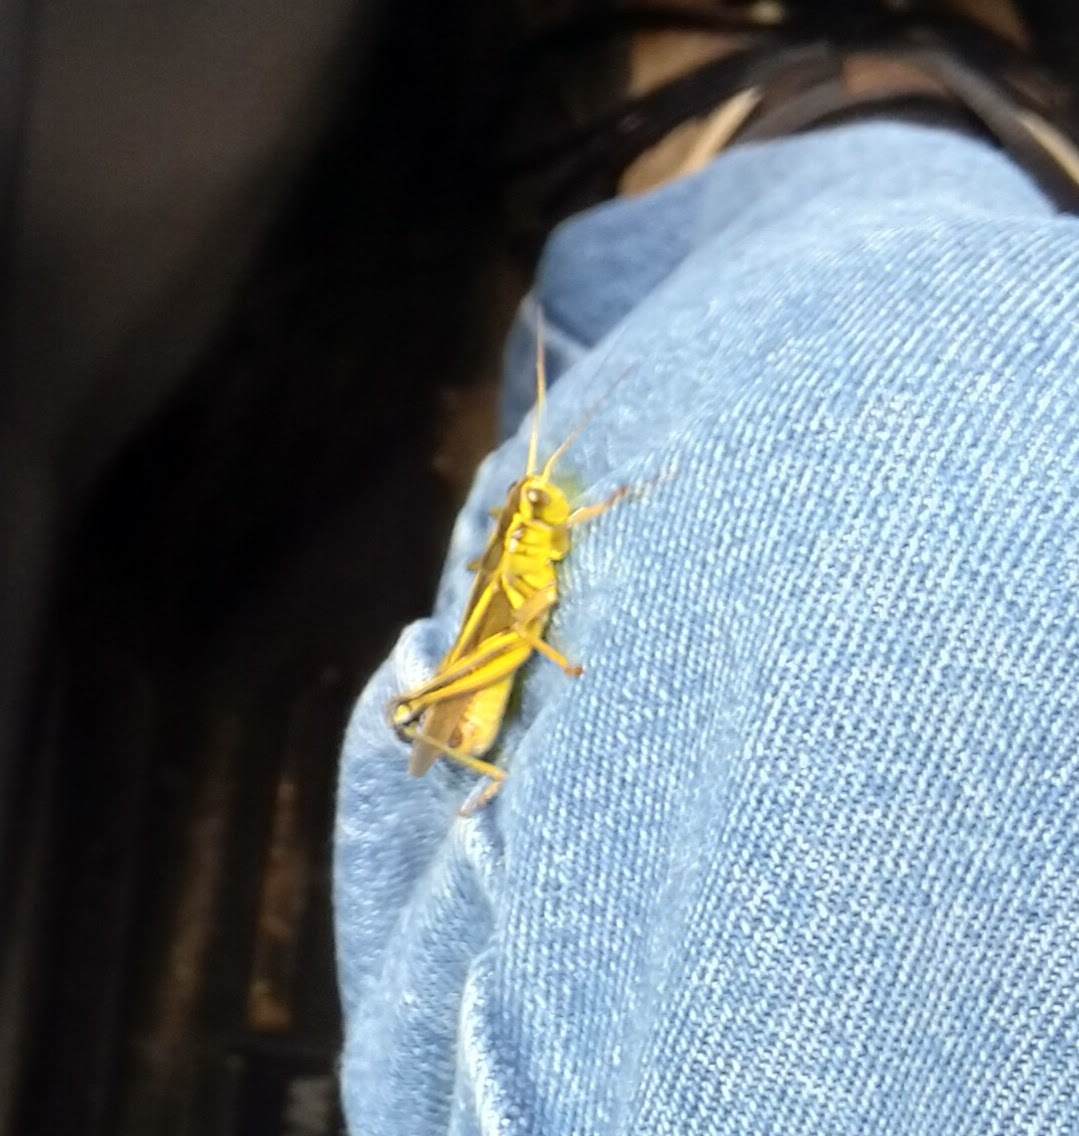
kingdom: Animalia
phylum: Arthropoda
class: Insecta
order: Orthoptera
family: Acrididae
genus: Melanoplus
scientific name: Melanoplus bivittatus
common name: Two-striped grasshopper
